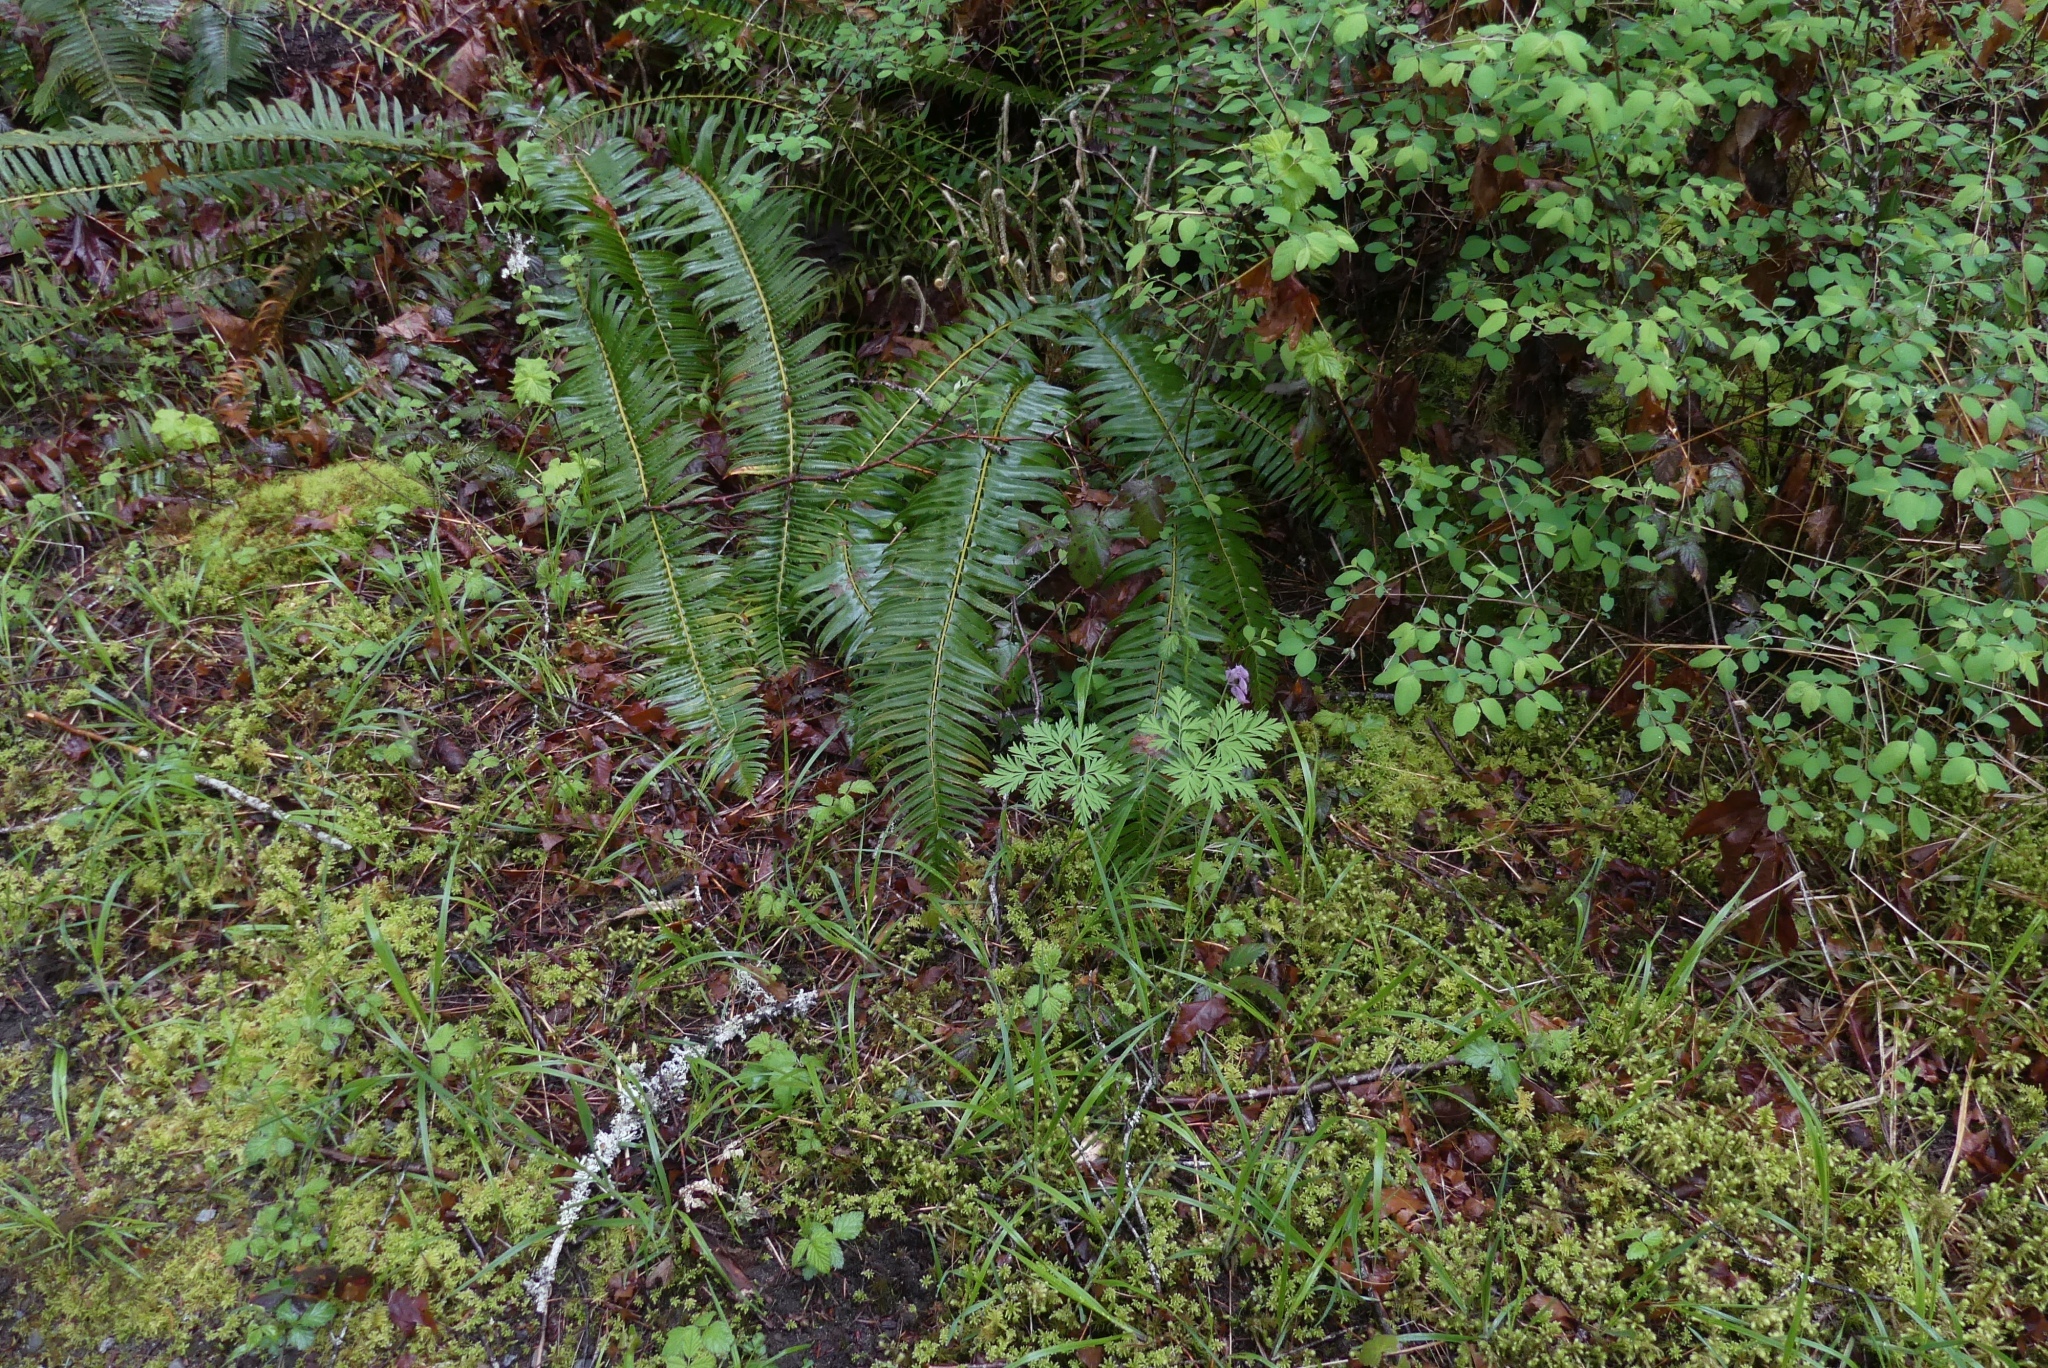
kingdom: Plantae
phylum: Tracheophyta
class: Magnoliopsida
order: Ranunculales
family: Papaveraceae
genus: Dicentra
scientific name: Dicentra formosa
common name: Bleeding-heart
